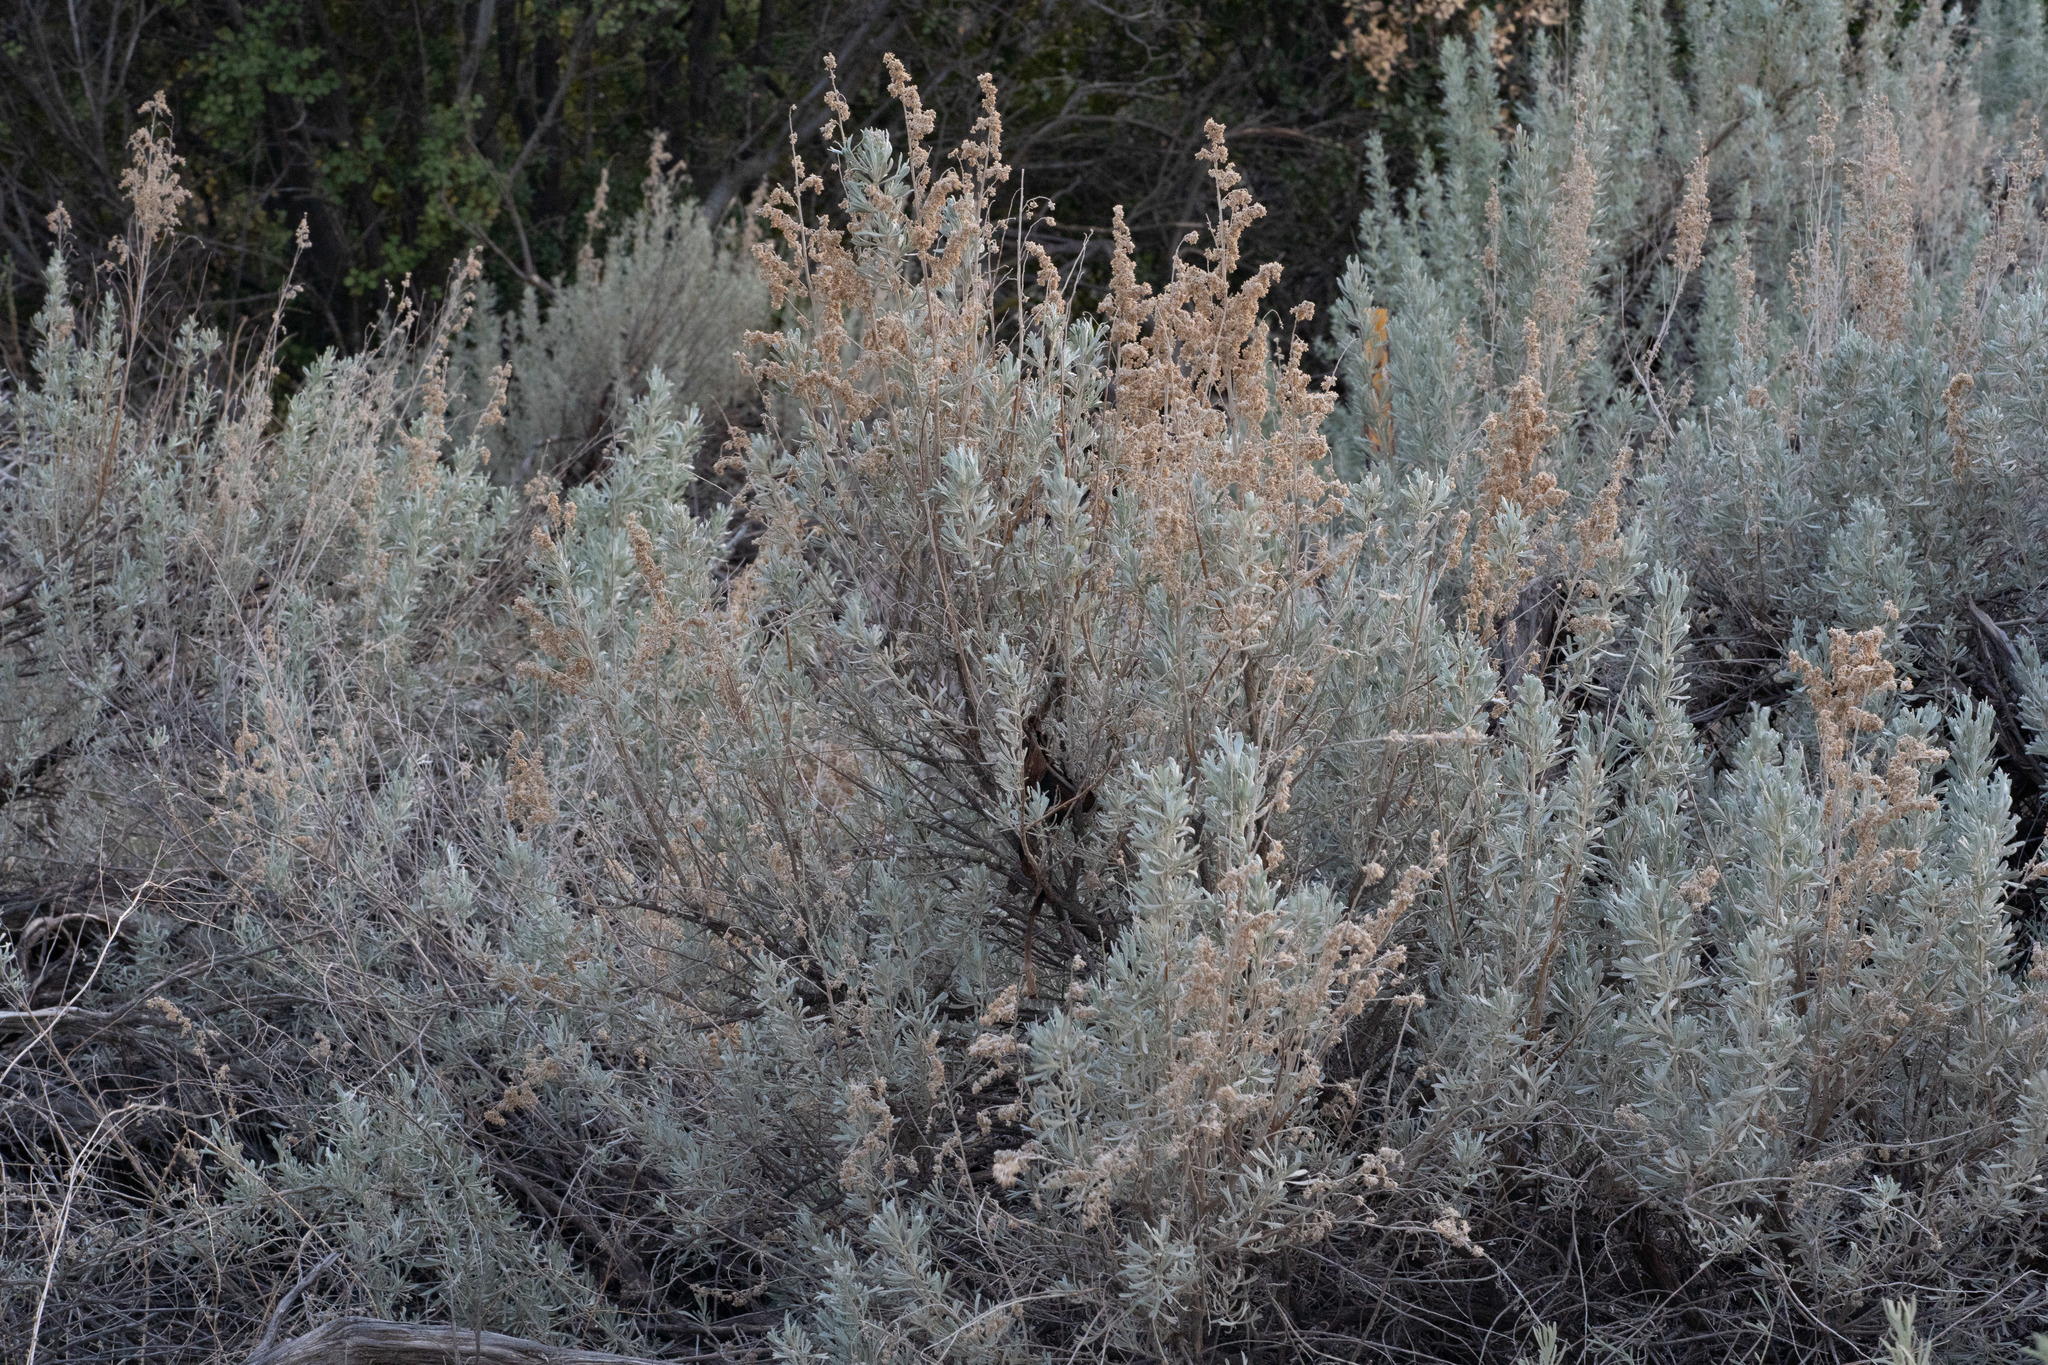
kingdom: Plantae
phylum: Tracheophyta
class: Magnoliopsida
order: Asterales
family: Asteraceae
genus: Artemisia
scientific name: Artemisia tridentata
